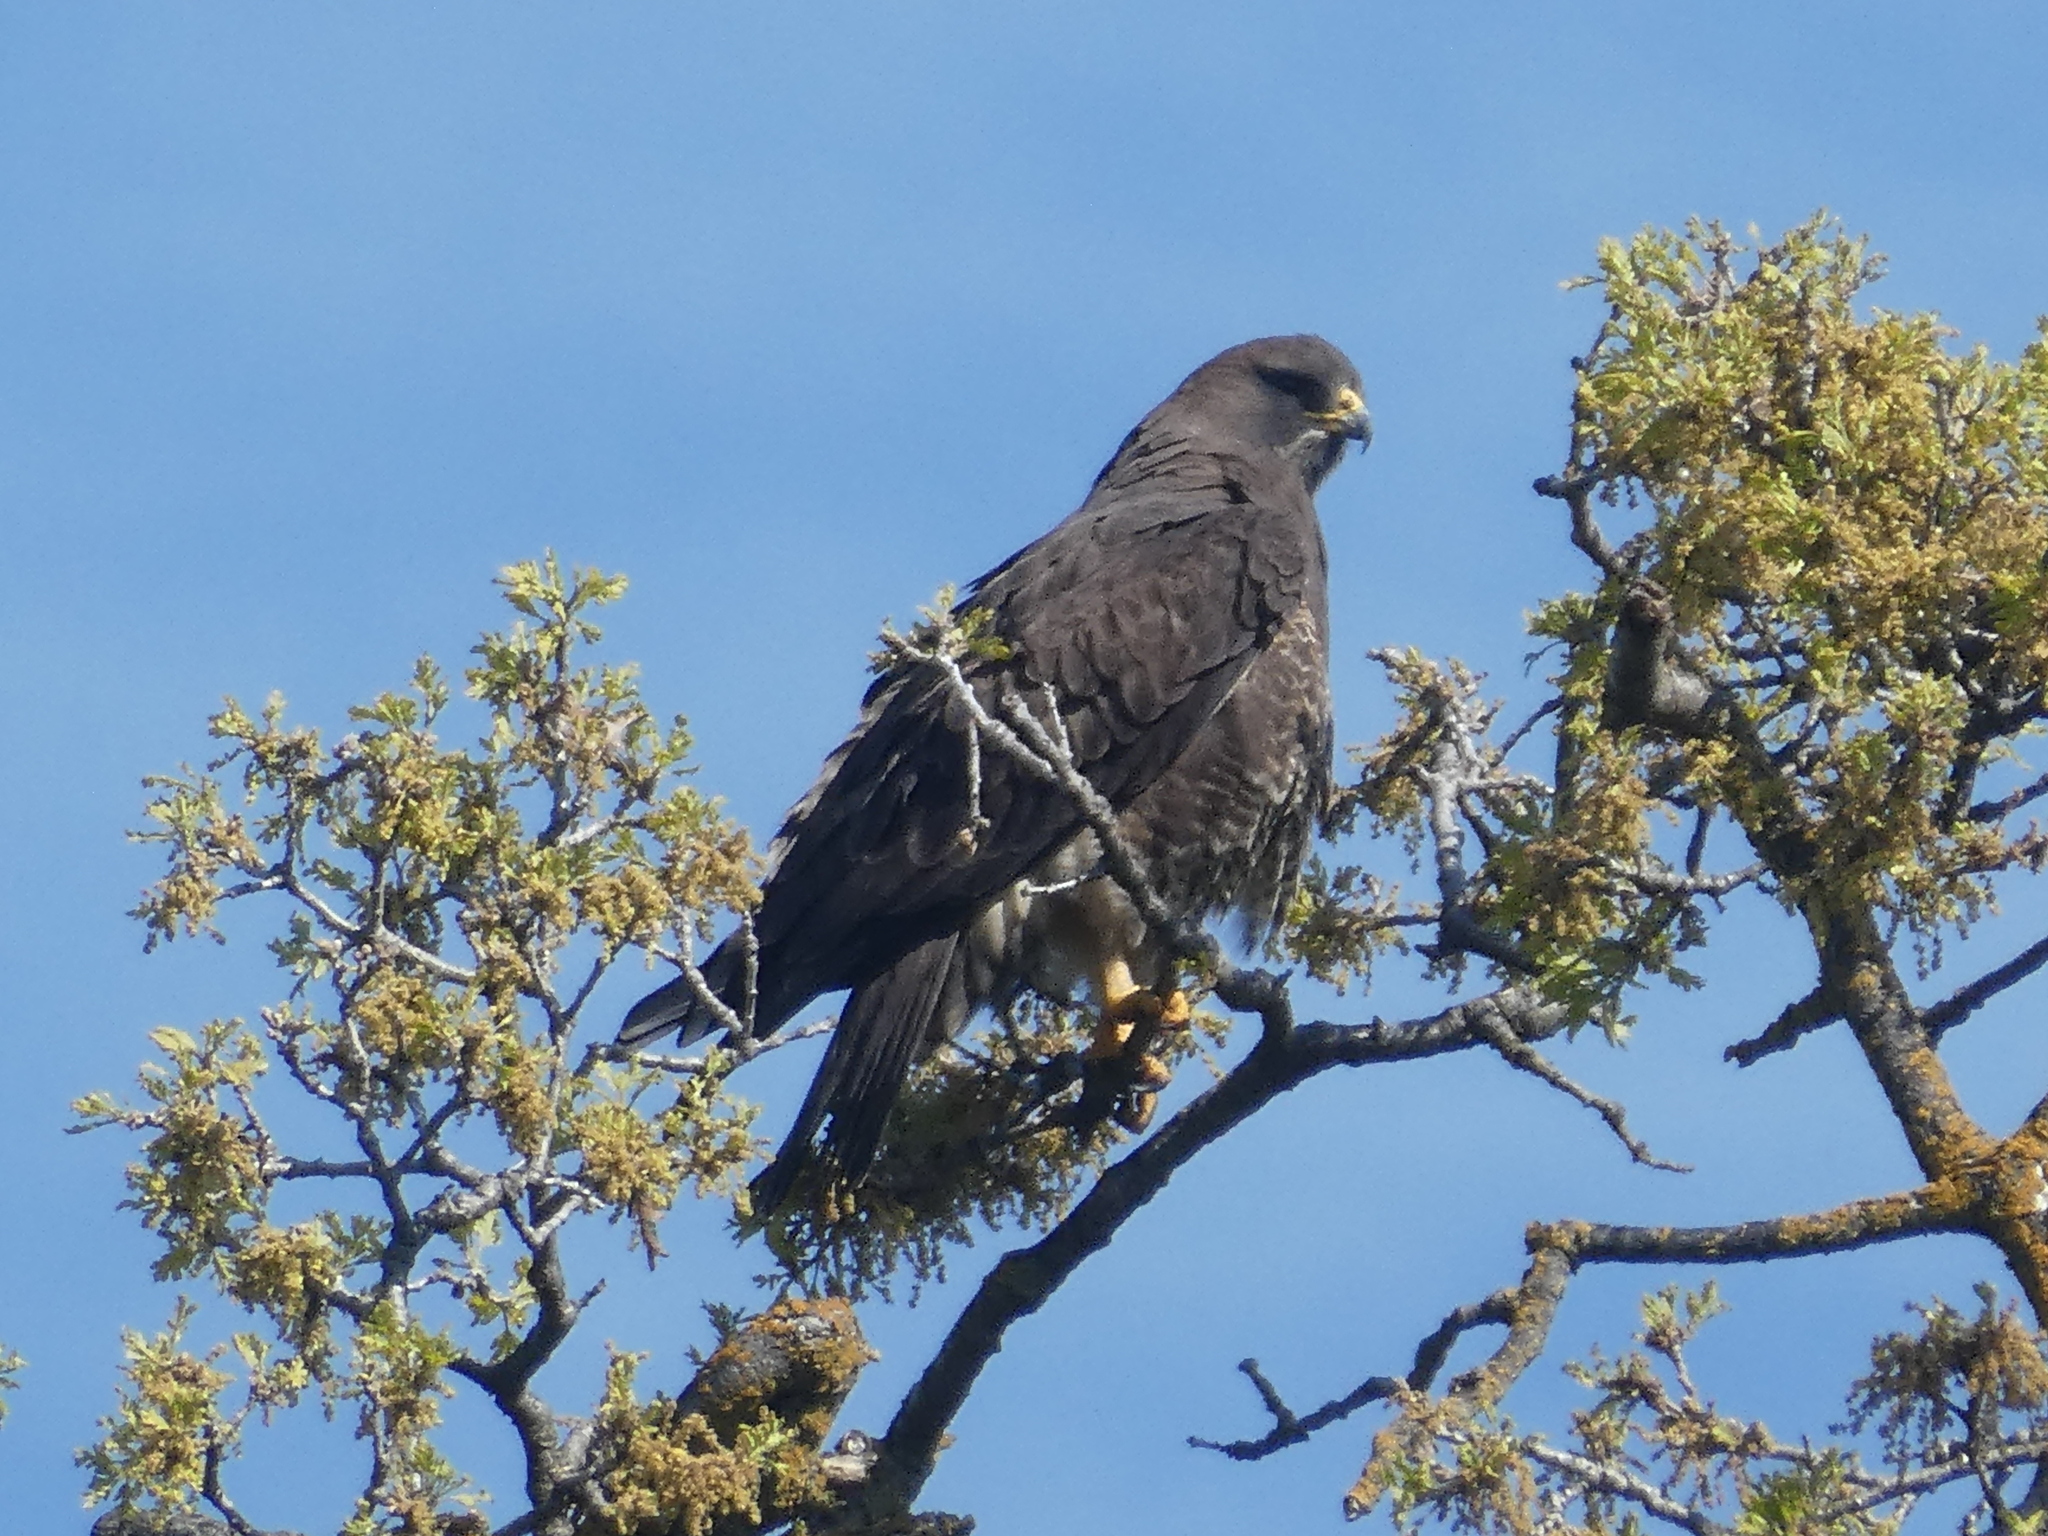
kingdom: Animalia
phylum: Chordata
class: Aves
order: Accipitriformes
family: Accipitridae
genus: Buteo
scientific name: Buteo swainsoni
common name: Swainson's hawk
